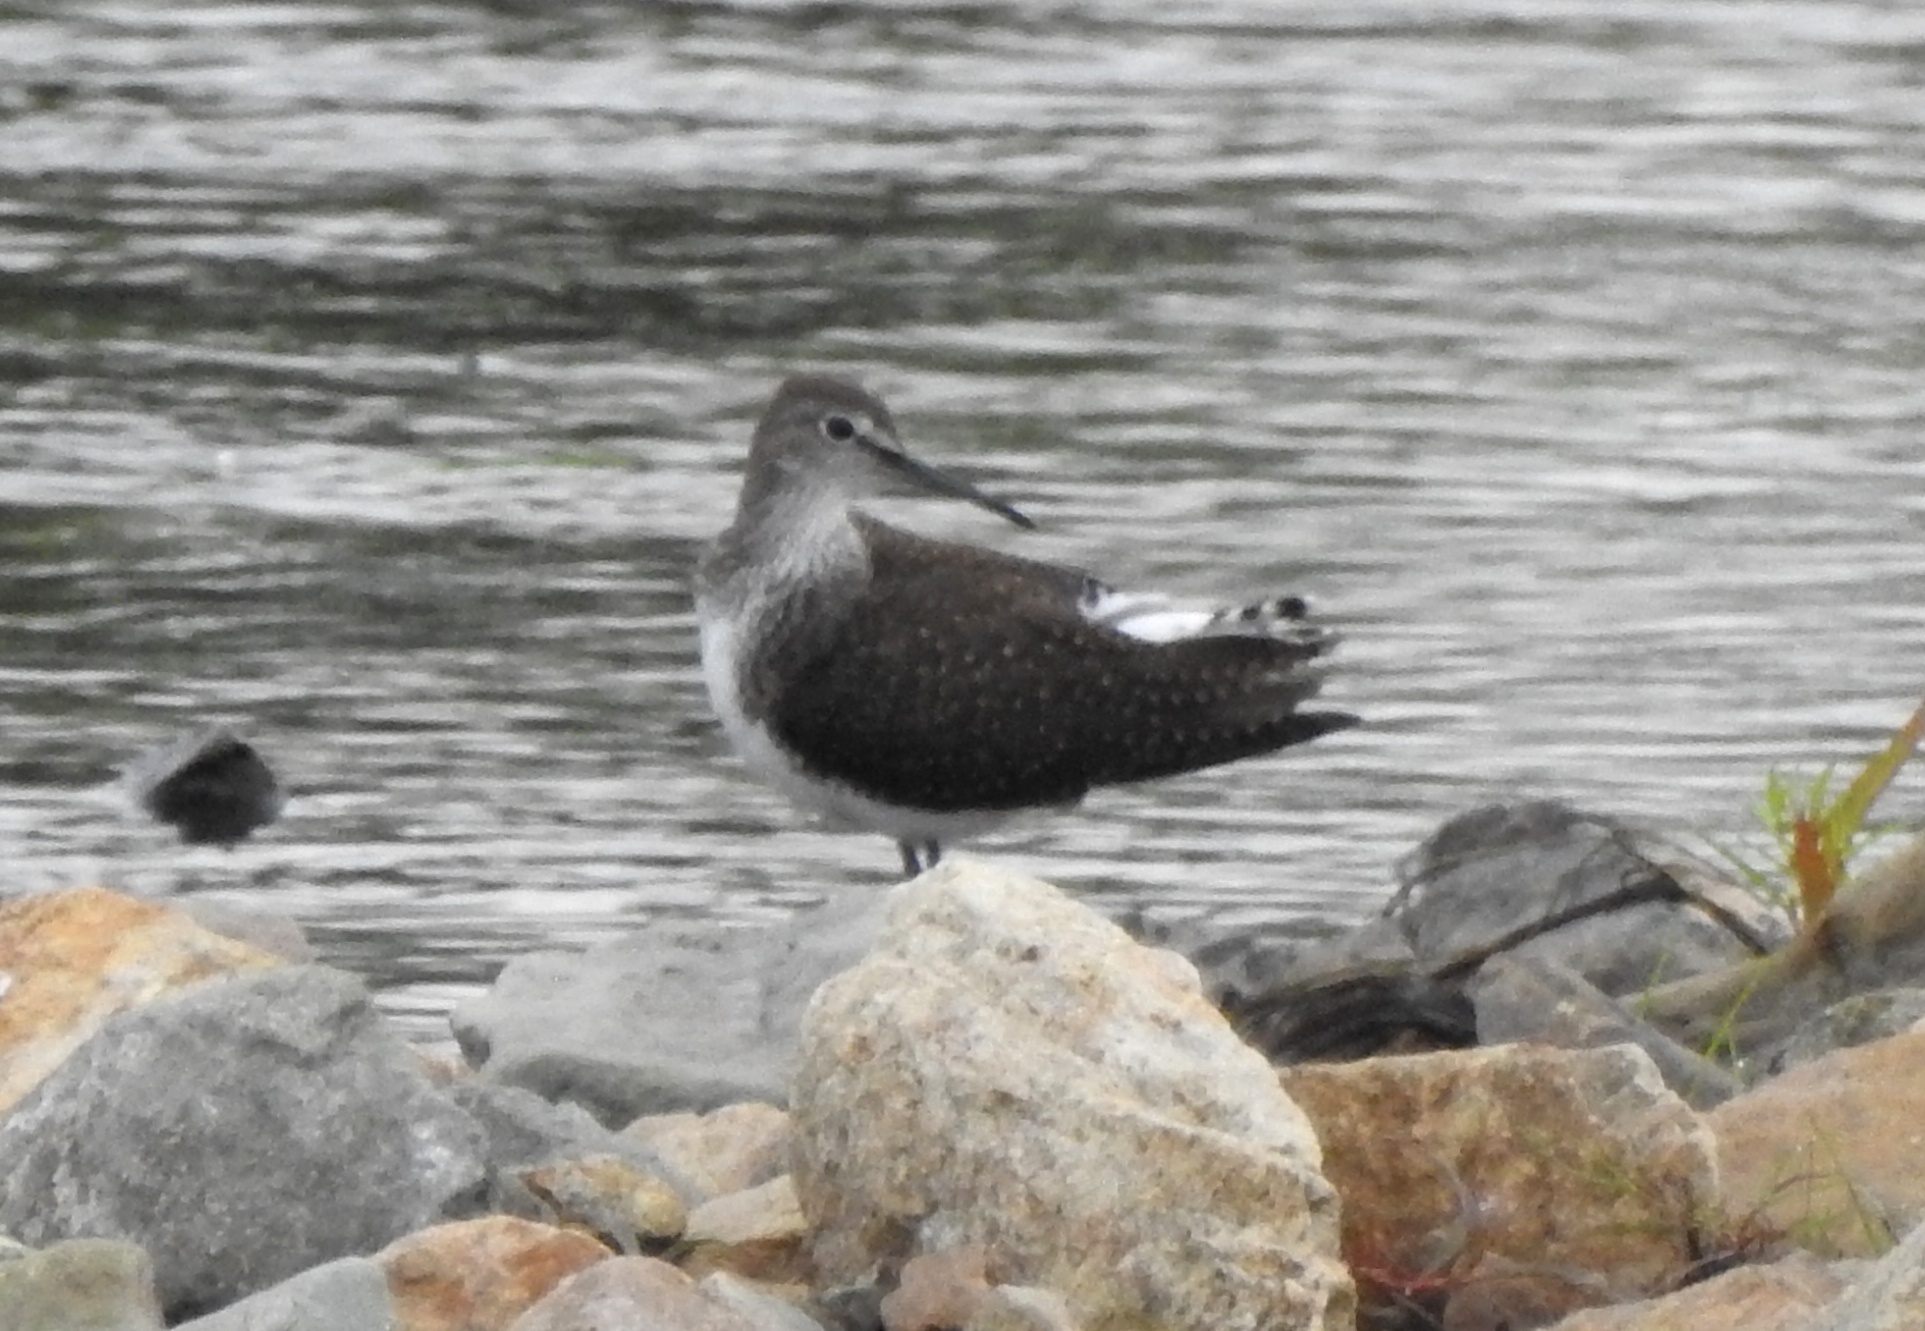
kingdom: Animalia
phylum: Chordata
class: Aves
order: Charadriiformes
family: Scolopacidae
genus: Tringa
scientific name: Tringa ochropus
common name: Green sandpiper
